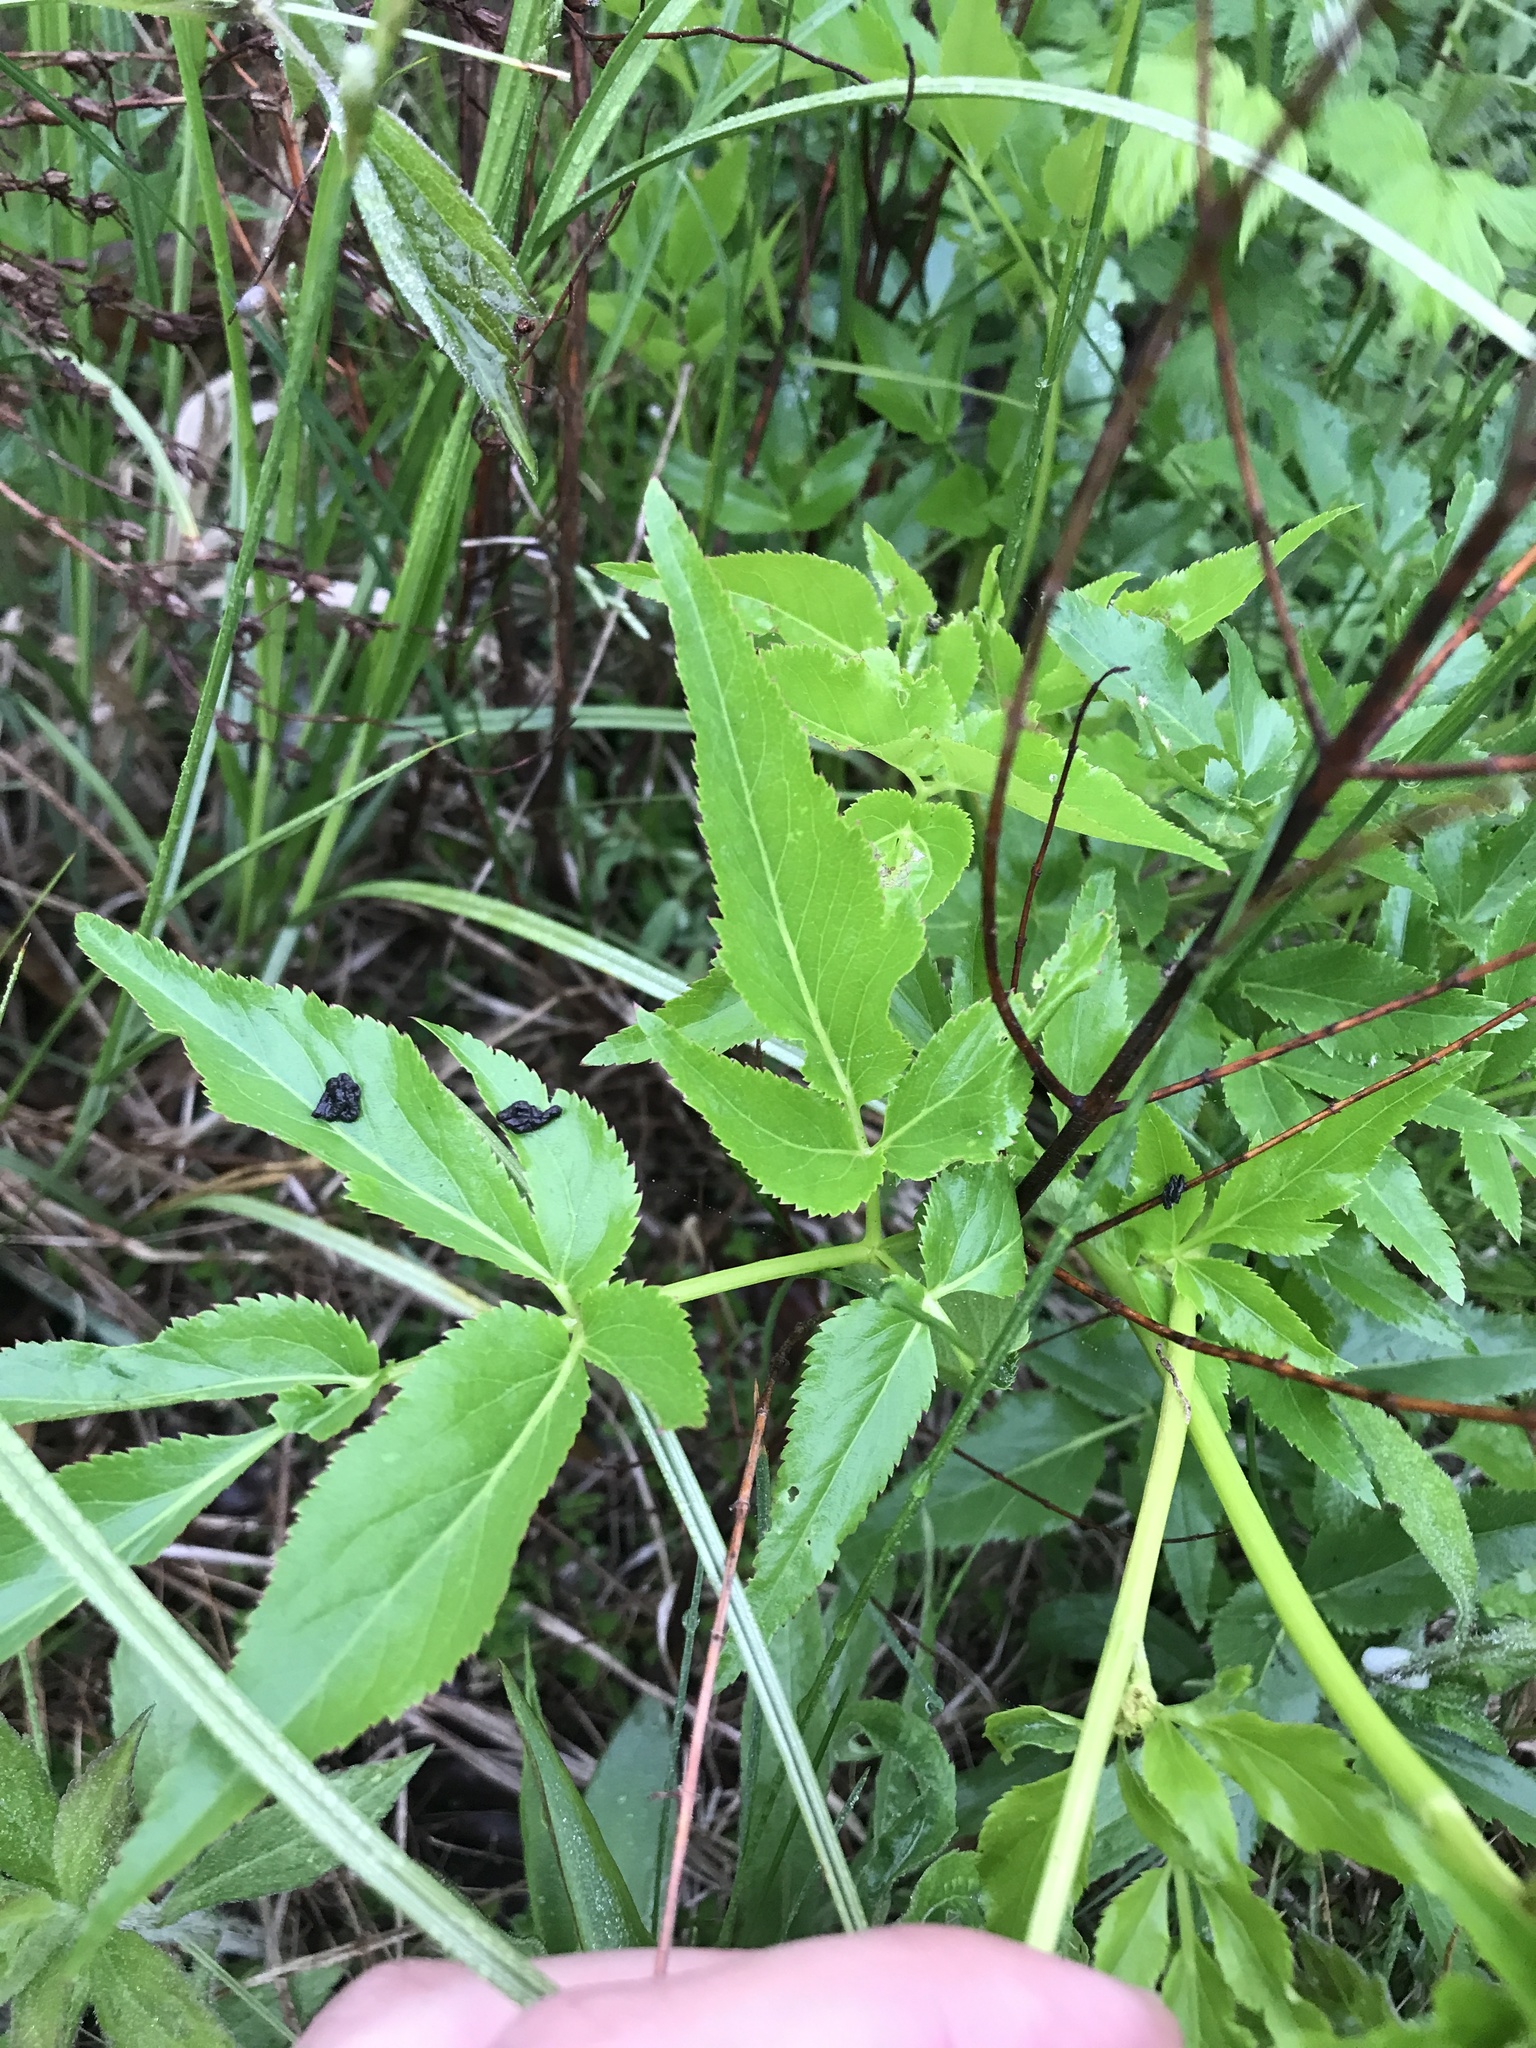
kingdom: Plantae
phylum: Tracheophyta
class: Magnoliopsida
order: Apiales
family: Apiaceae
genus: Zizia
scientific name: Zizia aurea
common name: Golden alexanders
